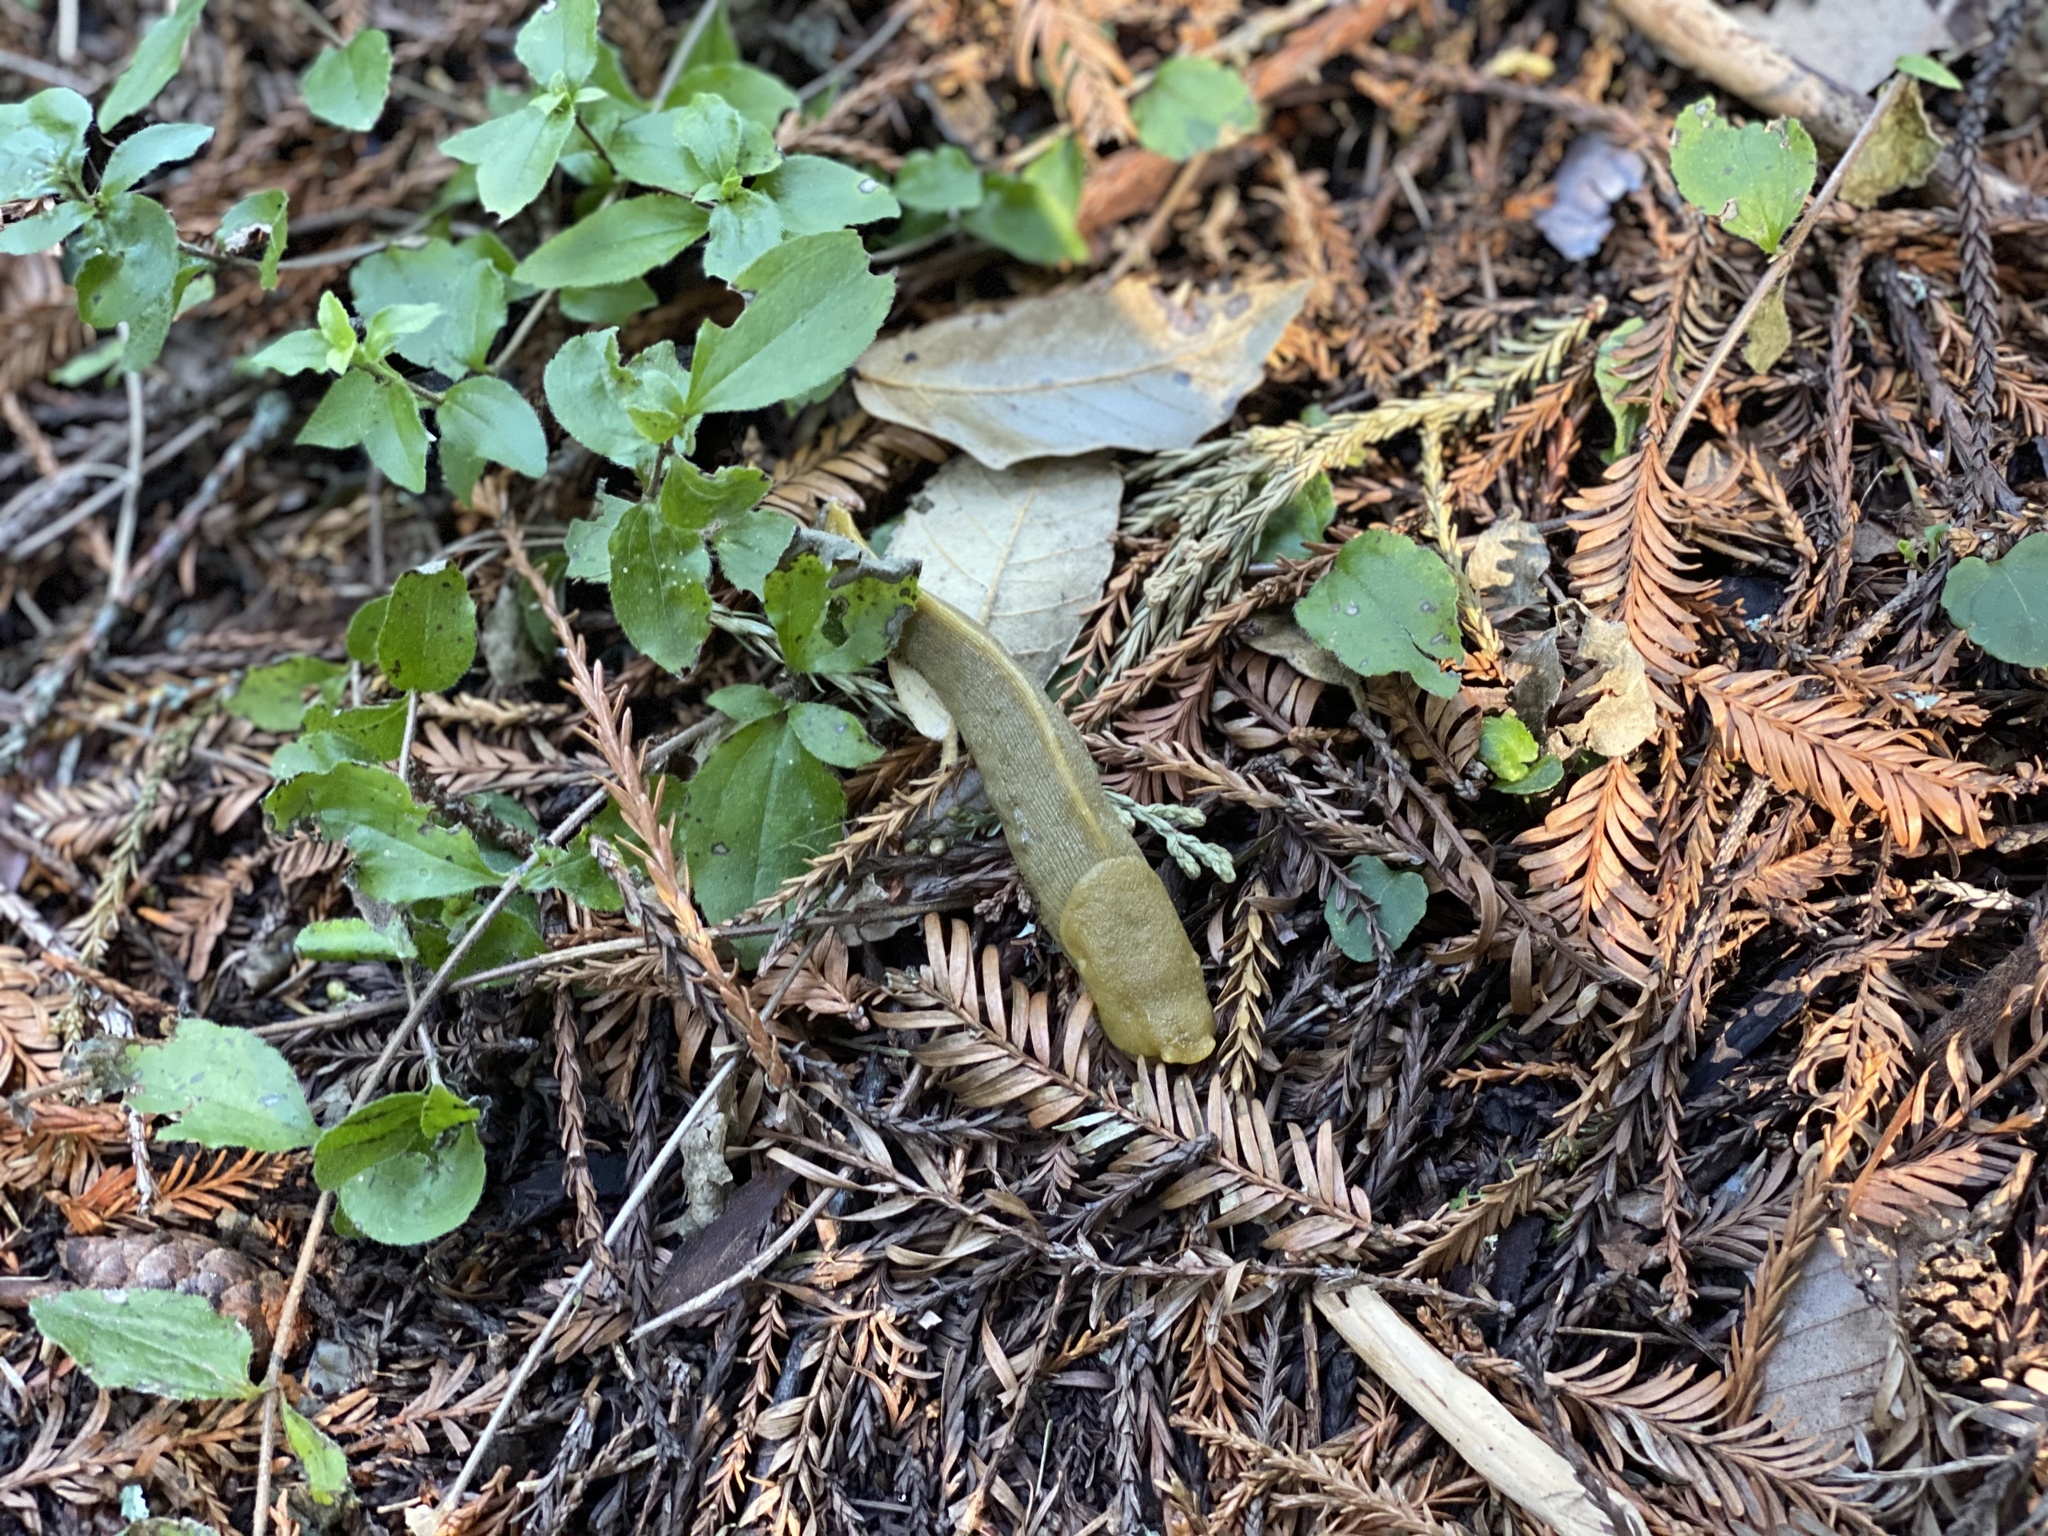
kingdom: Animalia
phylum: Mollusca
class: Gastropoda
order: Stylommatophora
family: Ariolimacidae
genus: Ariolimax
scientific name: Ariolimax buttoni
